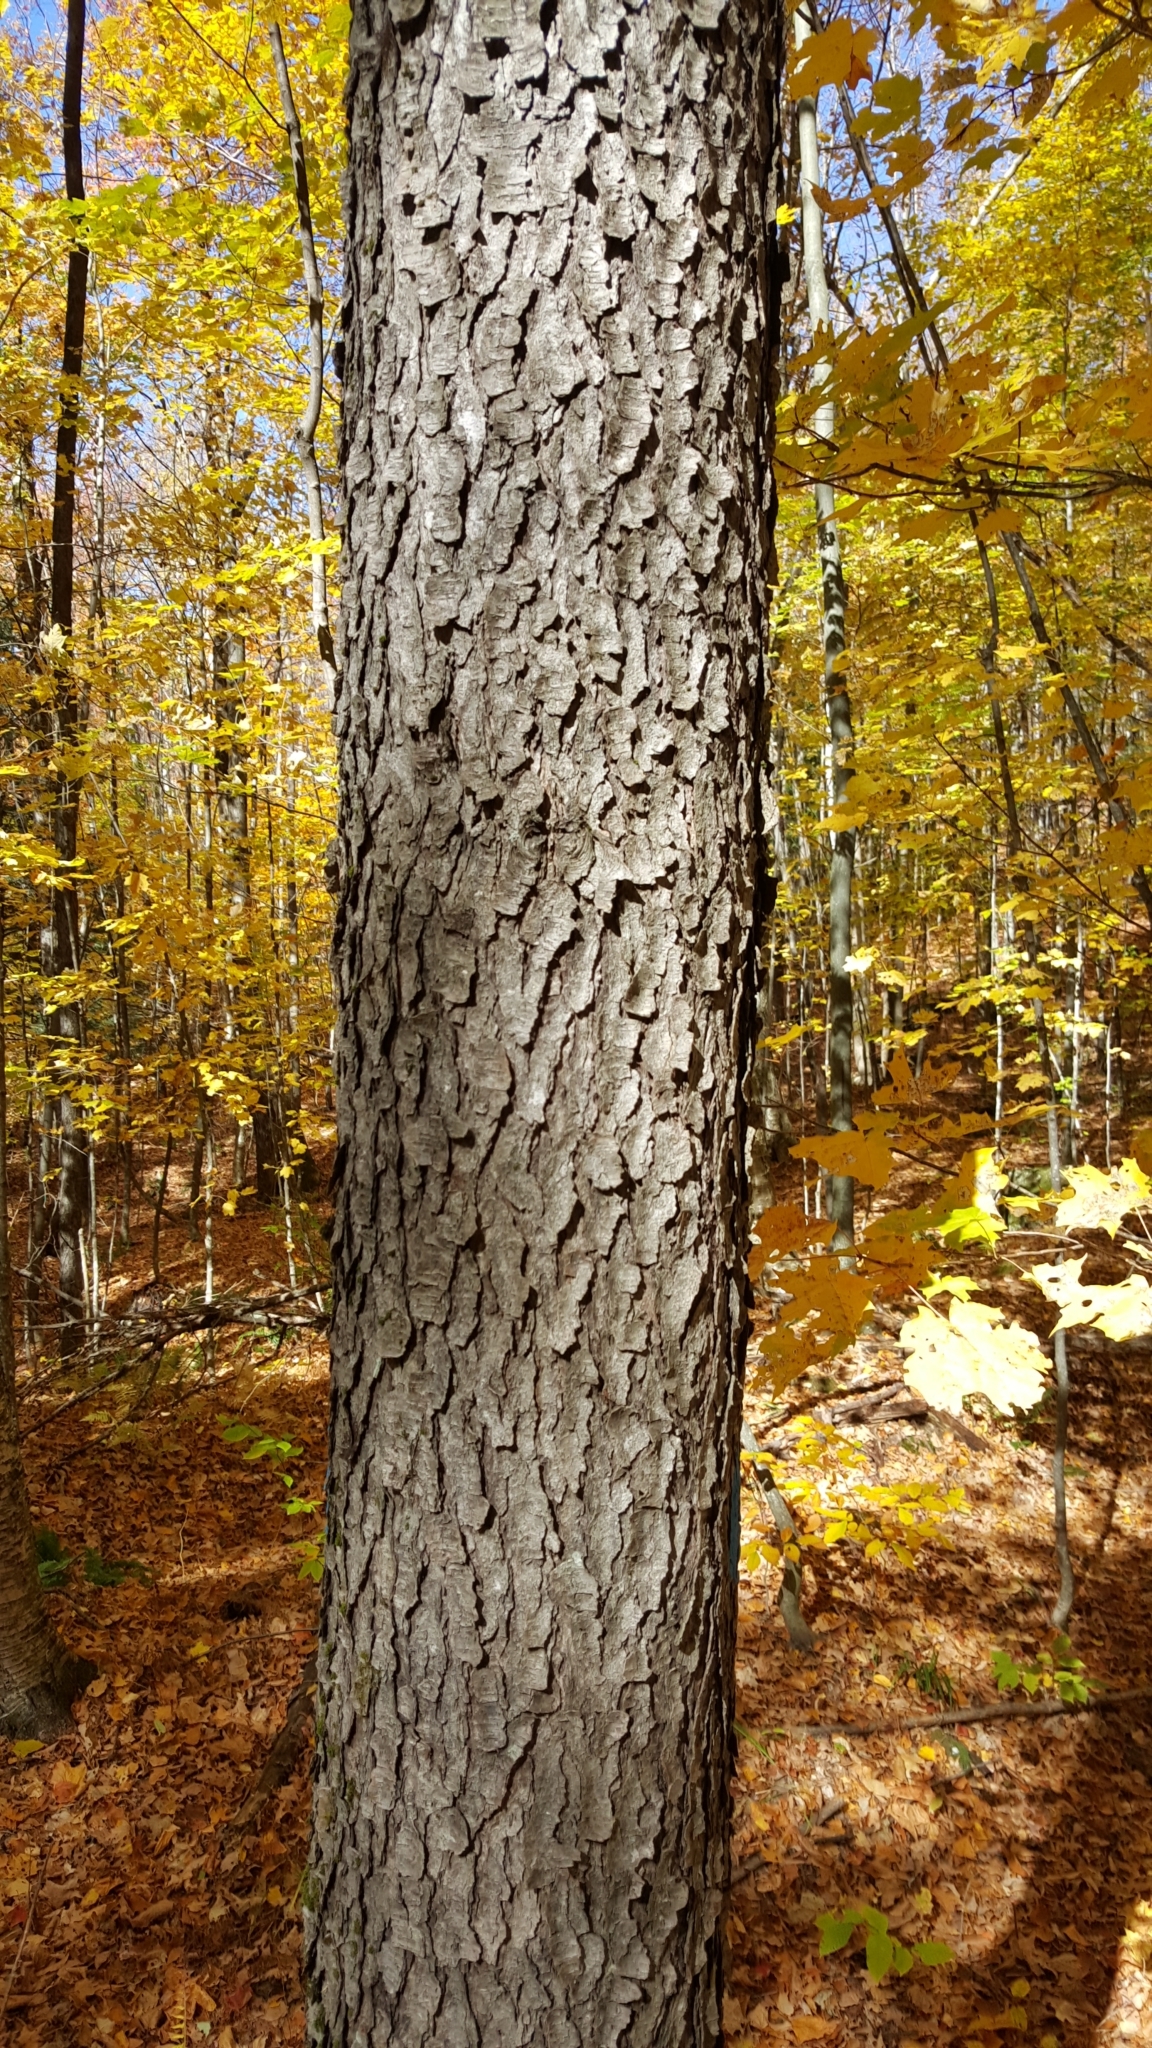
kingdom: Plantae
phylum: Tracheophyta
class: Magnoliopsida
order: Rosales
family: Rosaceae
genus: Prunus
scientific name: Prunus serotina
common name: Black cherry
